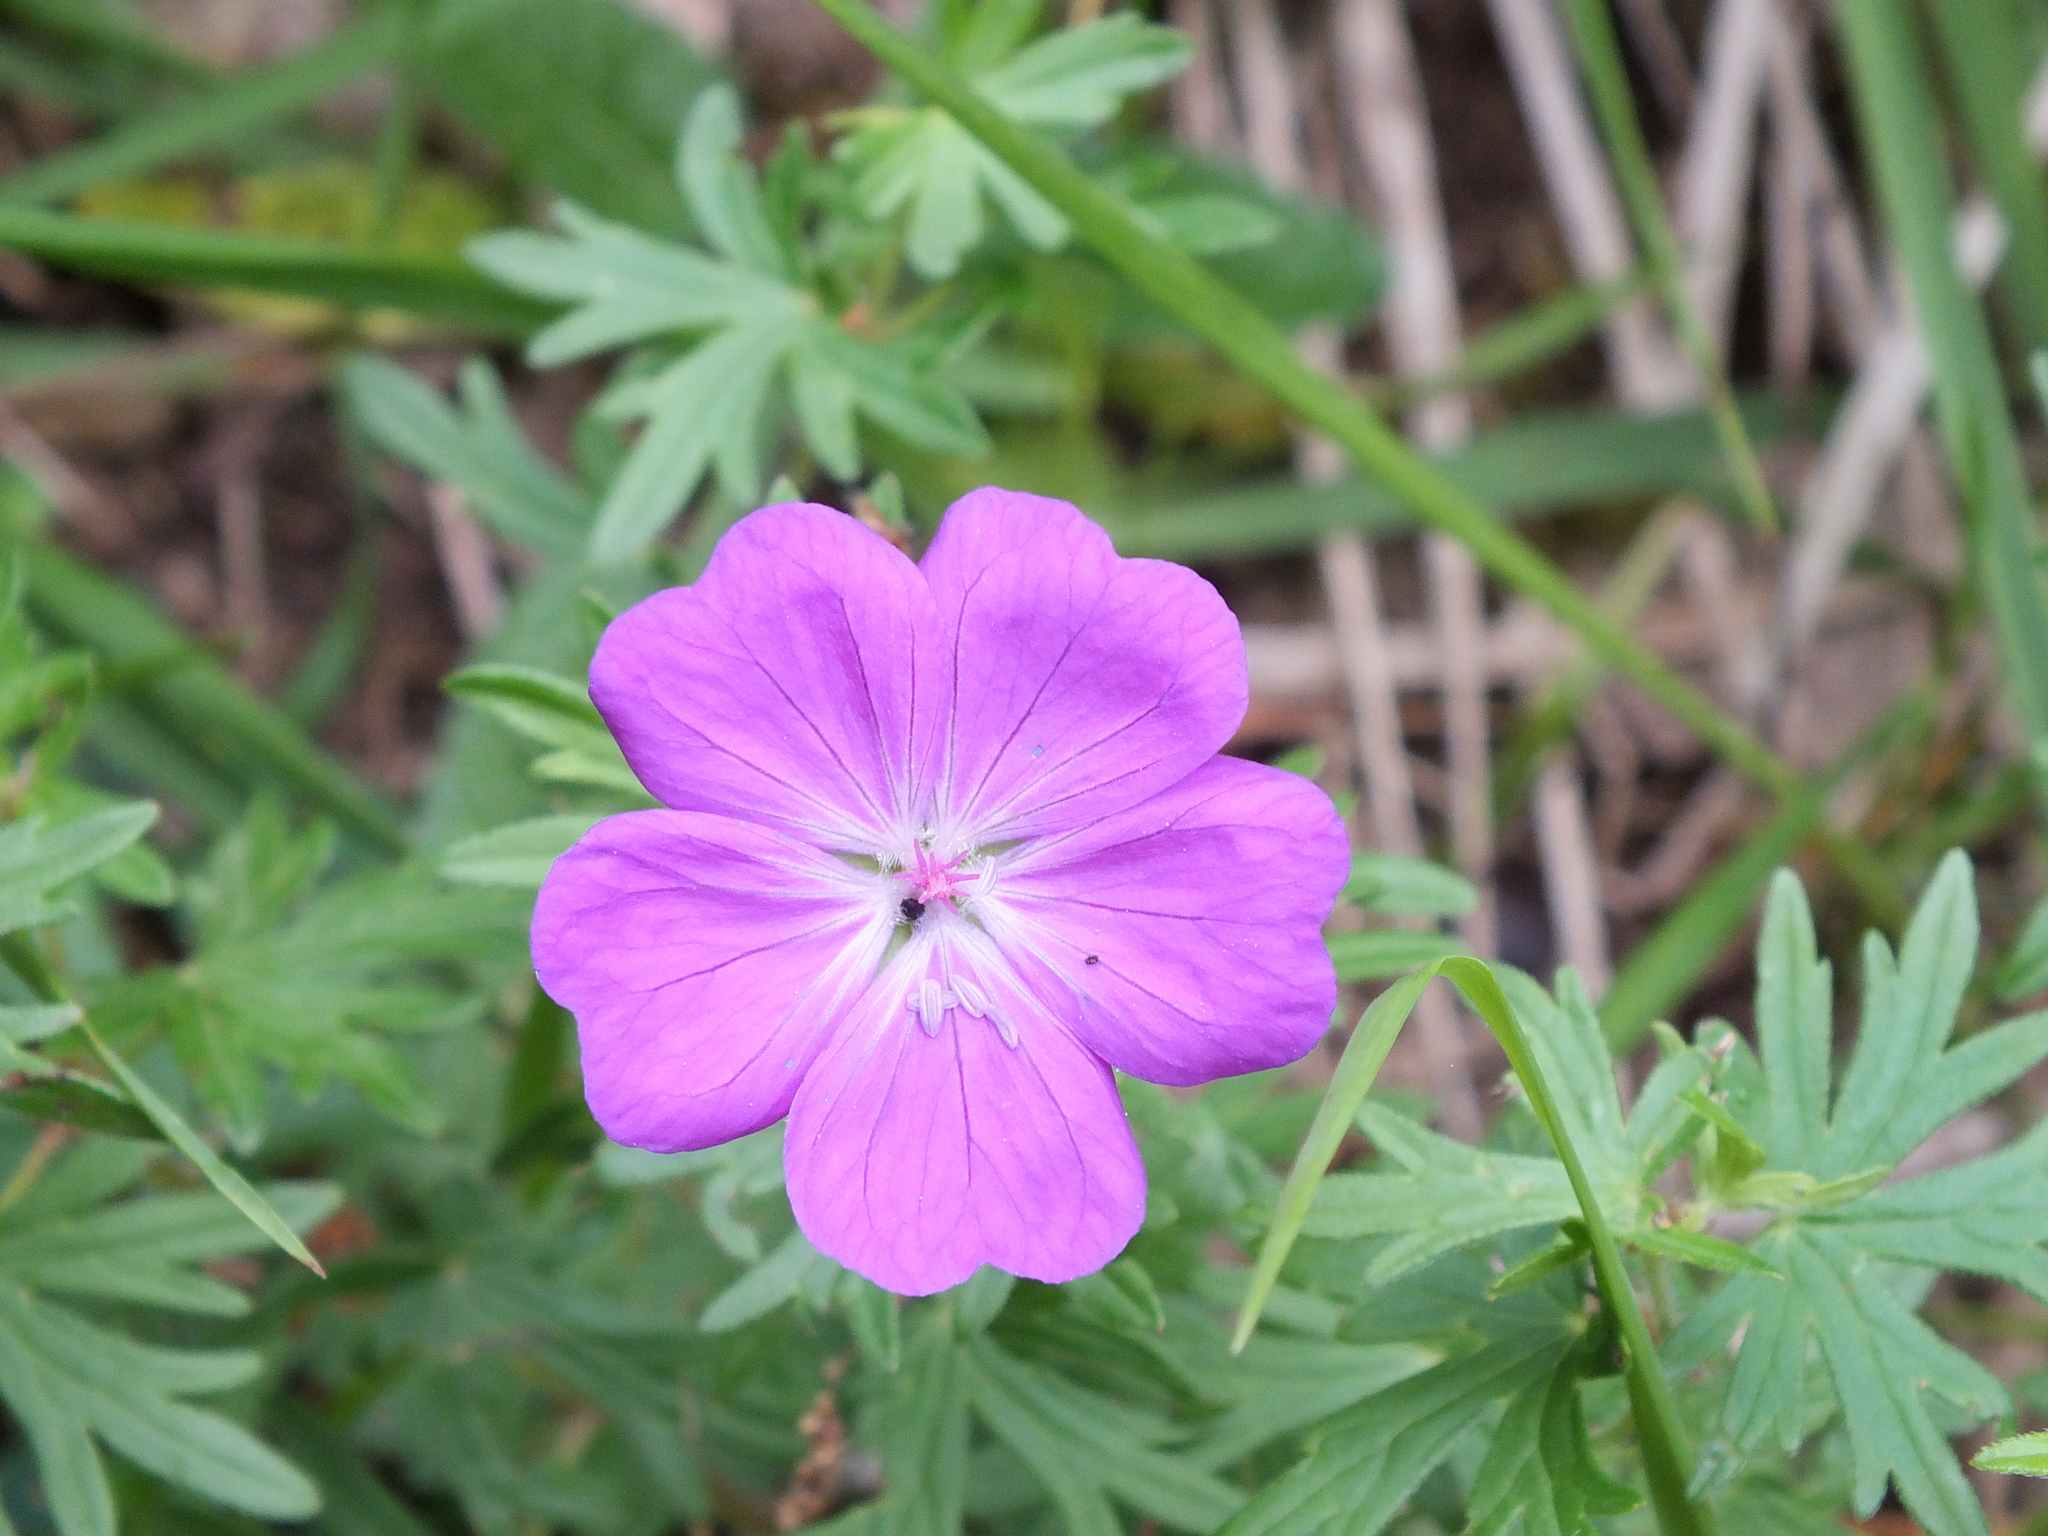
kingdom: Plantae
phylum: Tracheophyta
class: Magnoliopsida
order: Geraniales
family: Geraniaceae
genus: Geranium
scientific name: Geranium sanguineum
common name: Bloody crane's-bill
